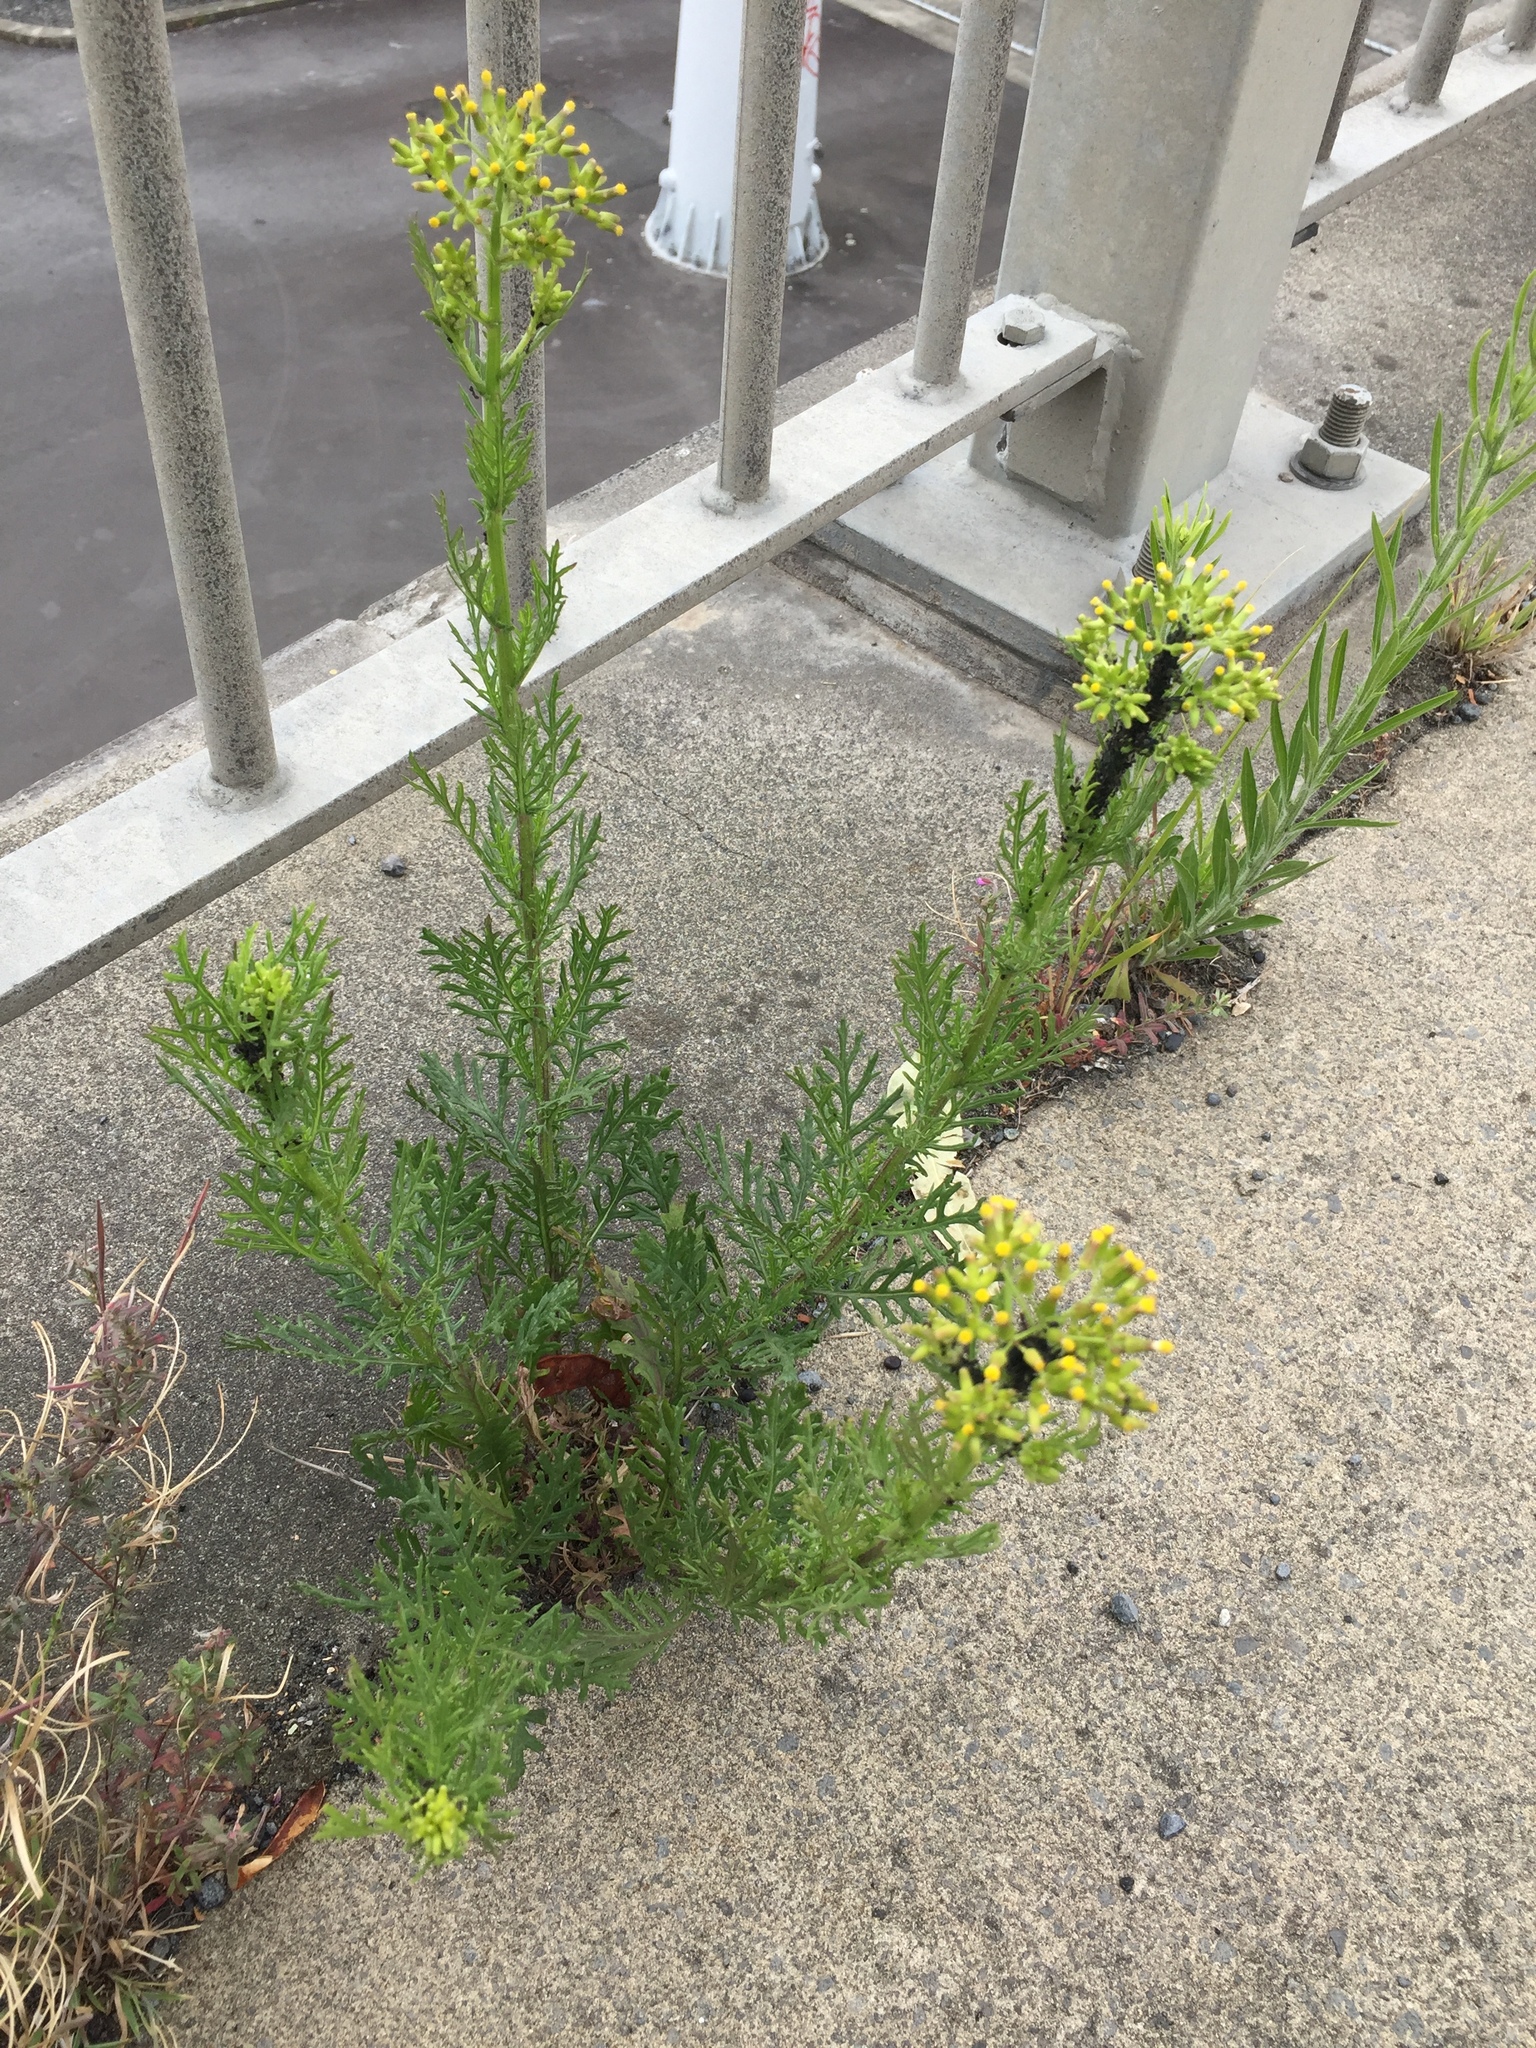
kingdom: Animalia
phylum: Arthropoda
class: Insecta
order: Hemiptera
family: Aphididae
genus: Aphis
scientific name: Aphis lugentis
